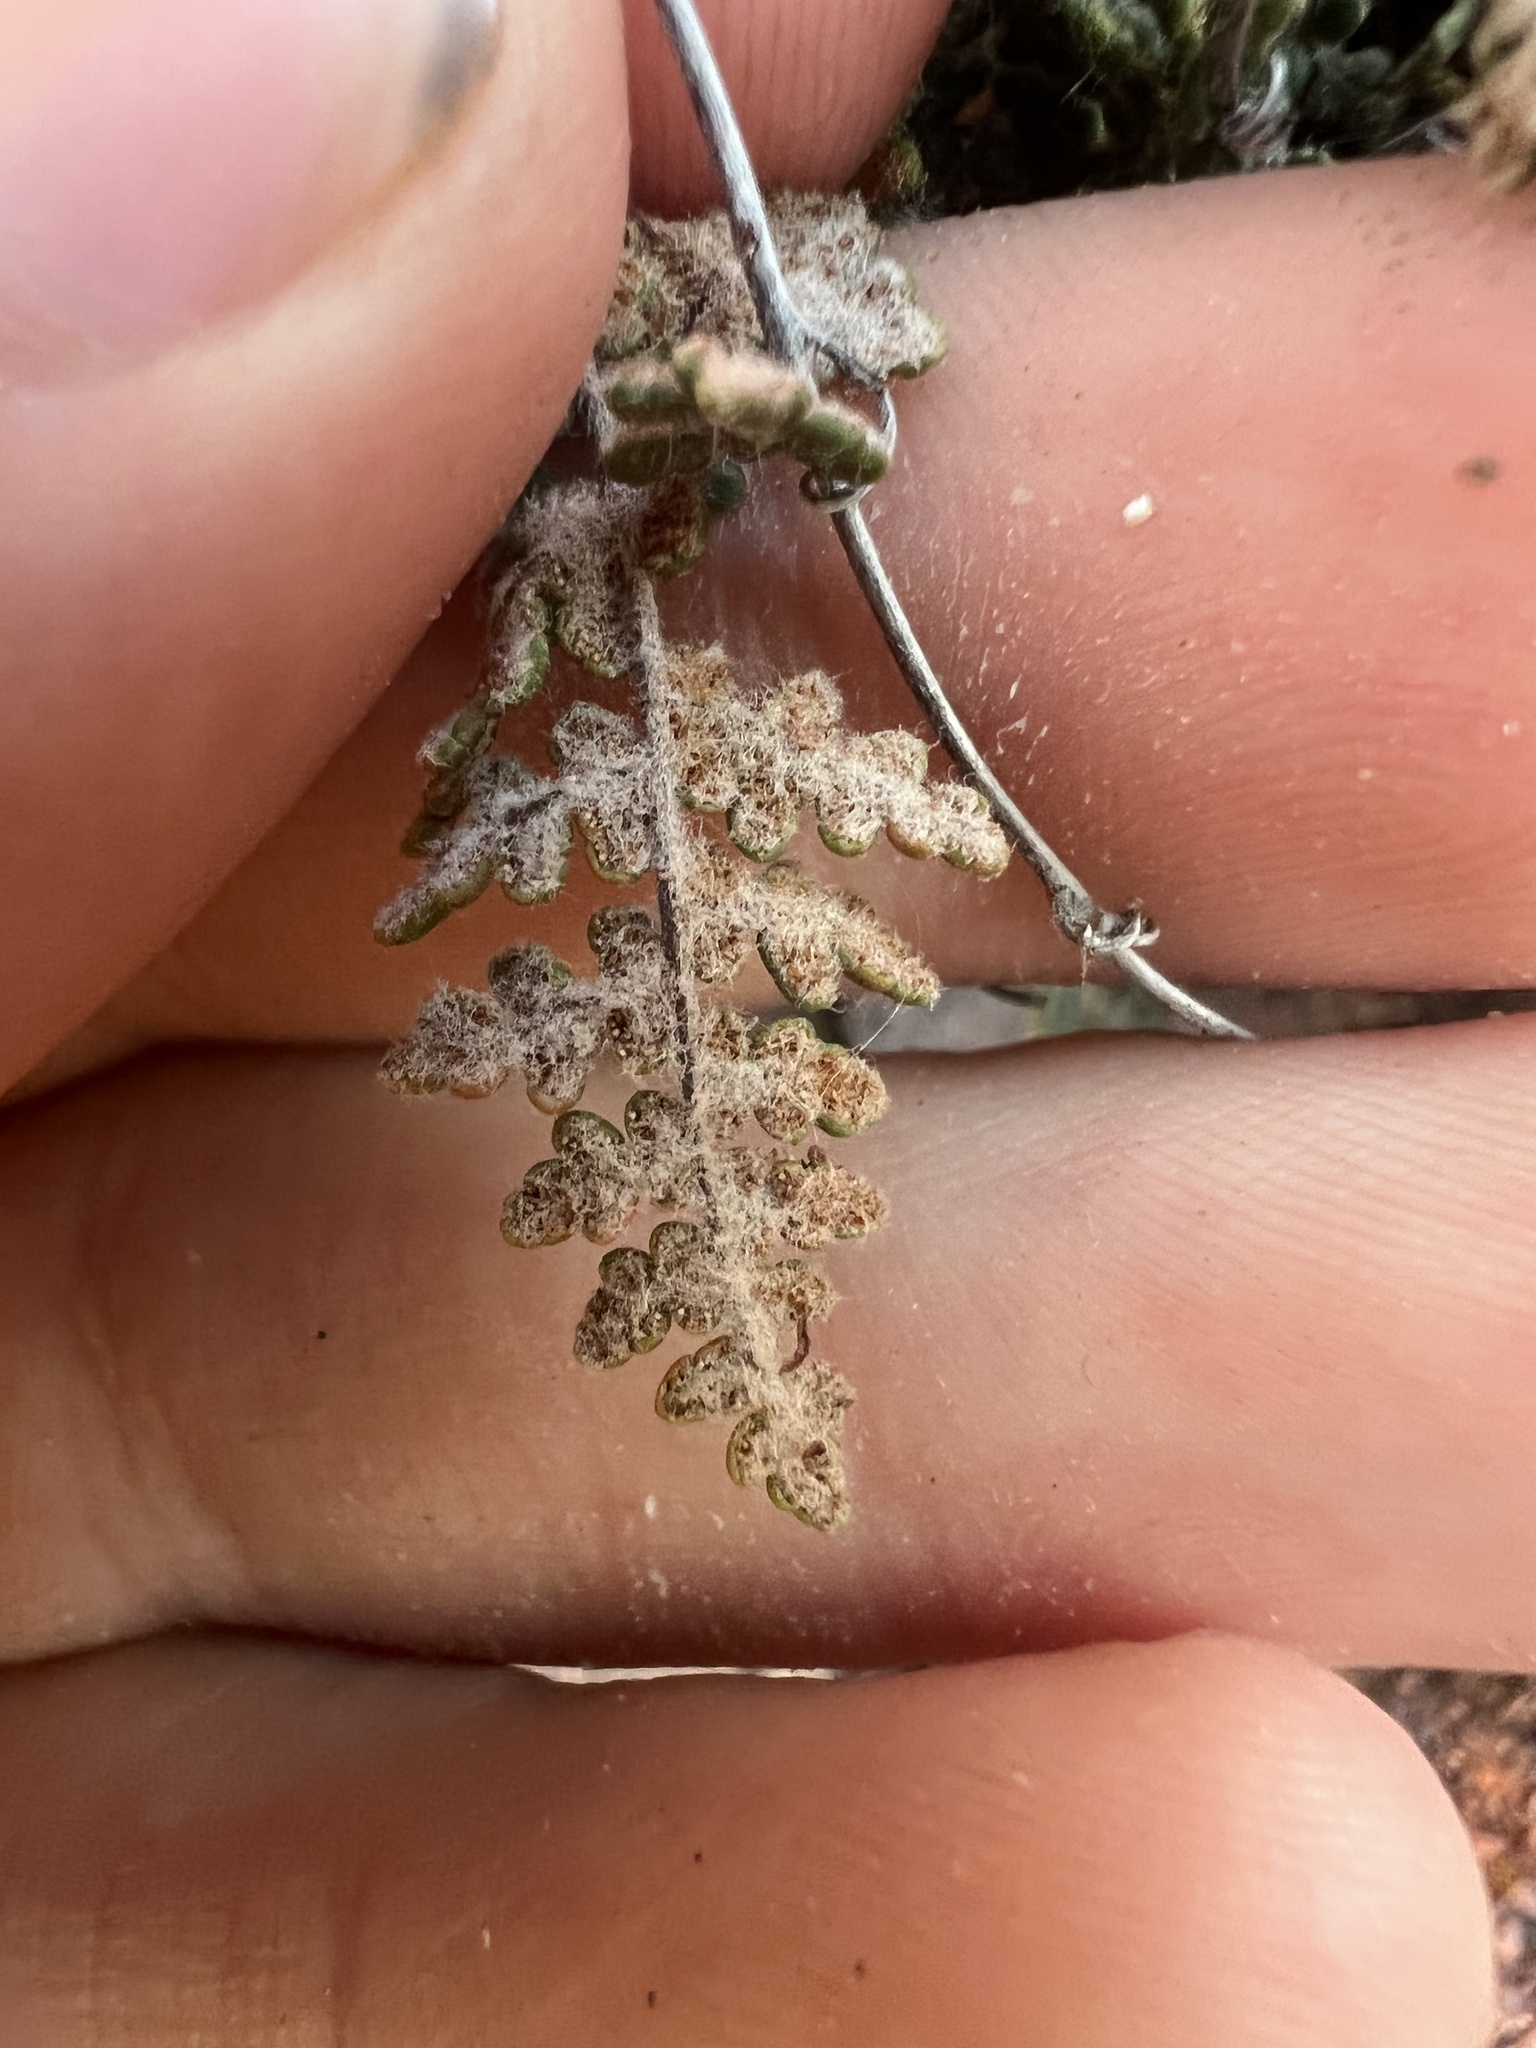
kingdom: Plantae
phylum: Tracheophyta
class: Polypodiopsida
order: Polypodiales
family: Pteridaceae
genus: Myriopteris
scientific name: Myriopteris gracilis
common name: Fee's lip fern
